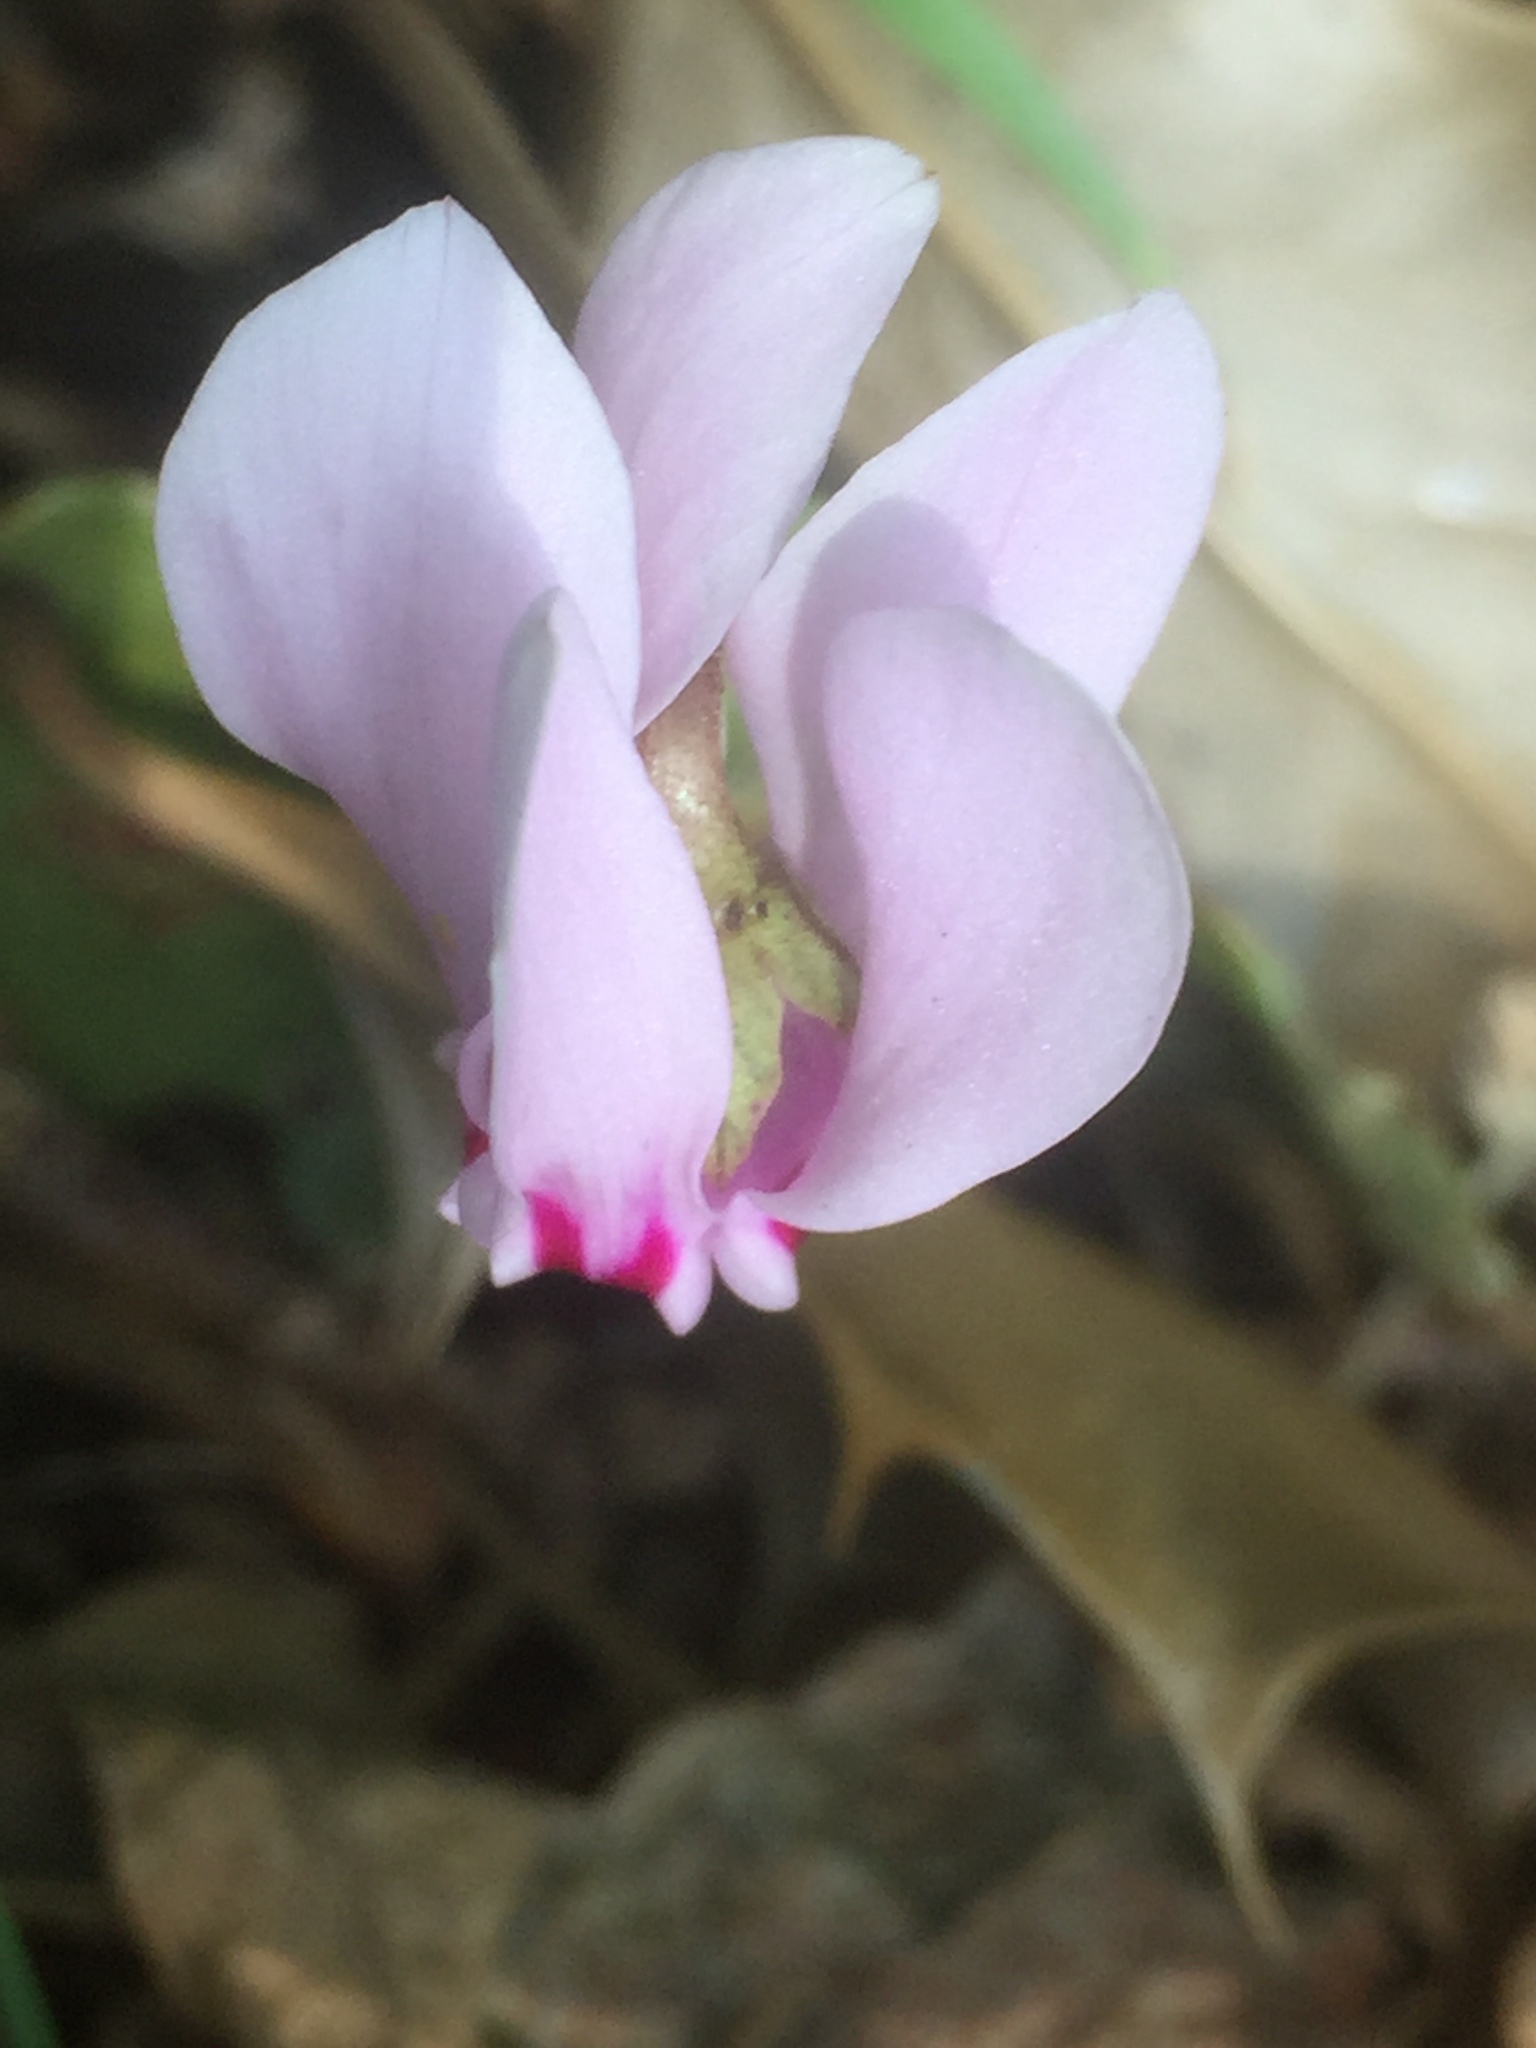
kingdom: Plantae
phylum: Tracheophyta
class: Magnoliopsida
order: Ericales
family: Primulaceae
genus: Cyclamen
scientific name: Cyclamen hederifolium
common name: Sowbread
